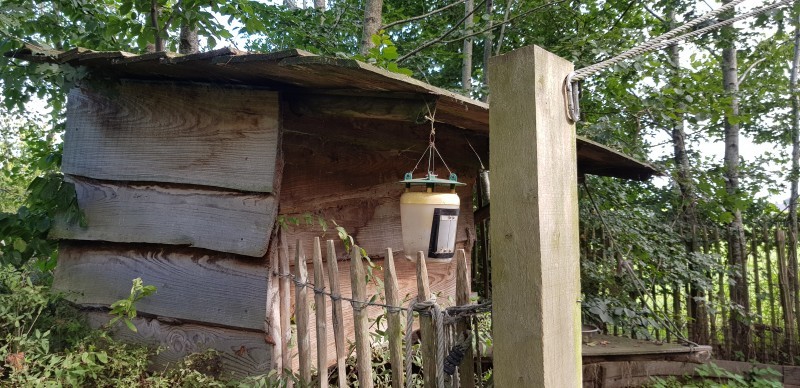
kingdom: Animalia
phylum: Arthropoda
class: Insecta
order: Hymenoptera
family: Vespidae
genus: Vespa
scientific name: Vespa velutina
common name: Asian hornet
